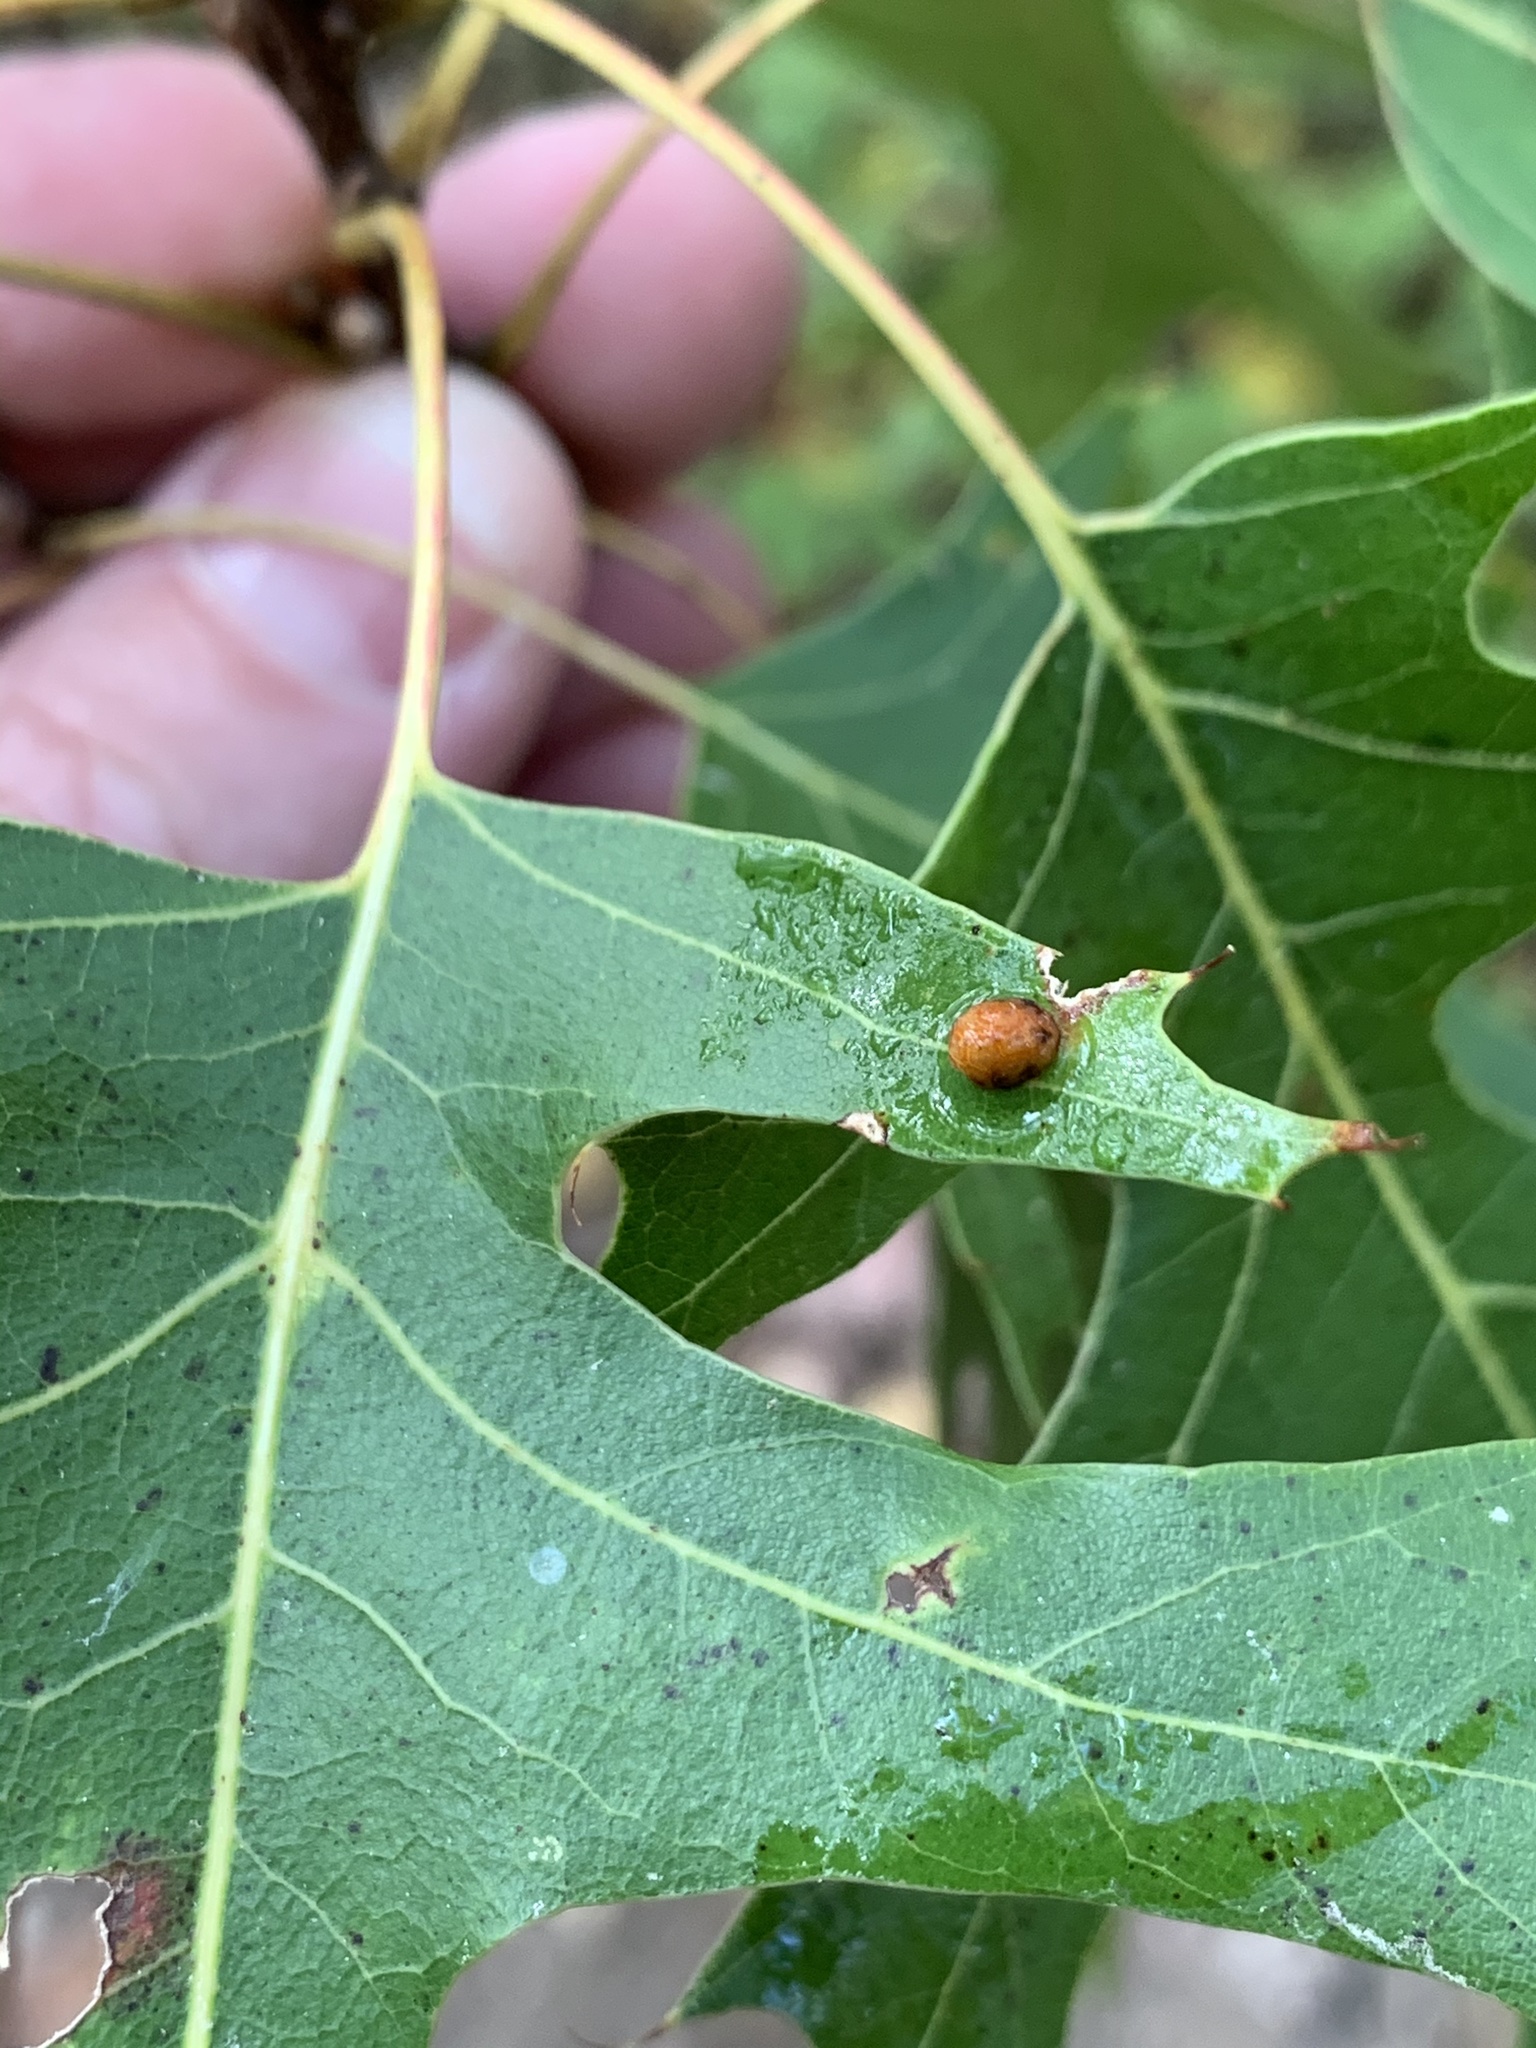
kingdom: Animalia
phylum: Arthropoda
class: Insecta
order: Diptera
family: Cecidomyiidae
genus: Polystepha
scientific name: Polystepha pilulae
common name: Oak leaf gall midge
